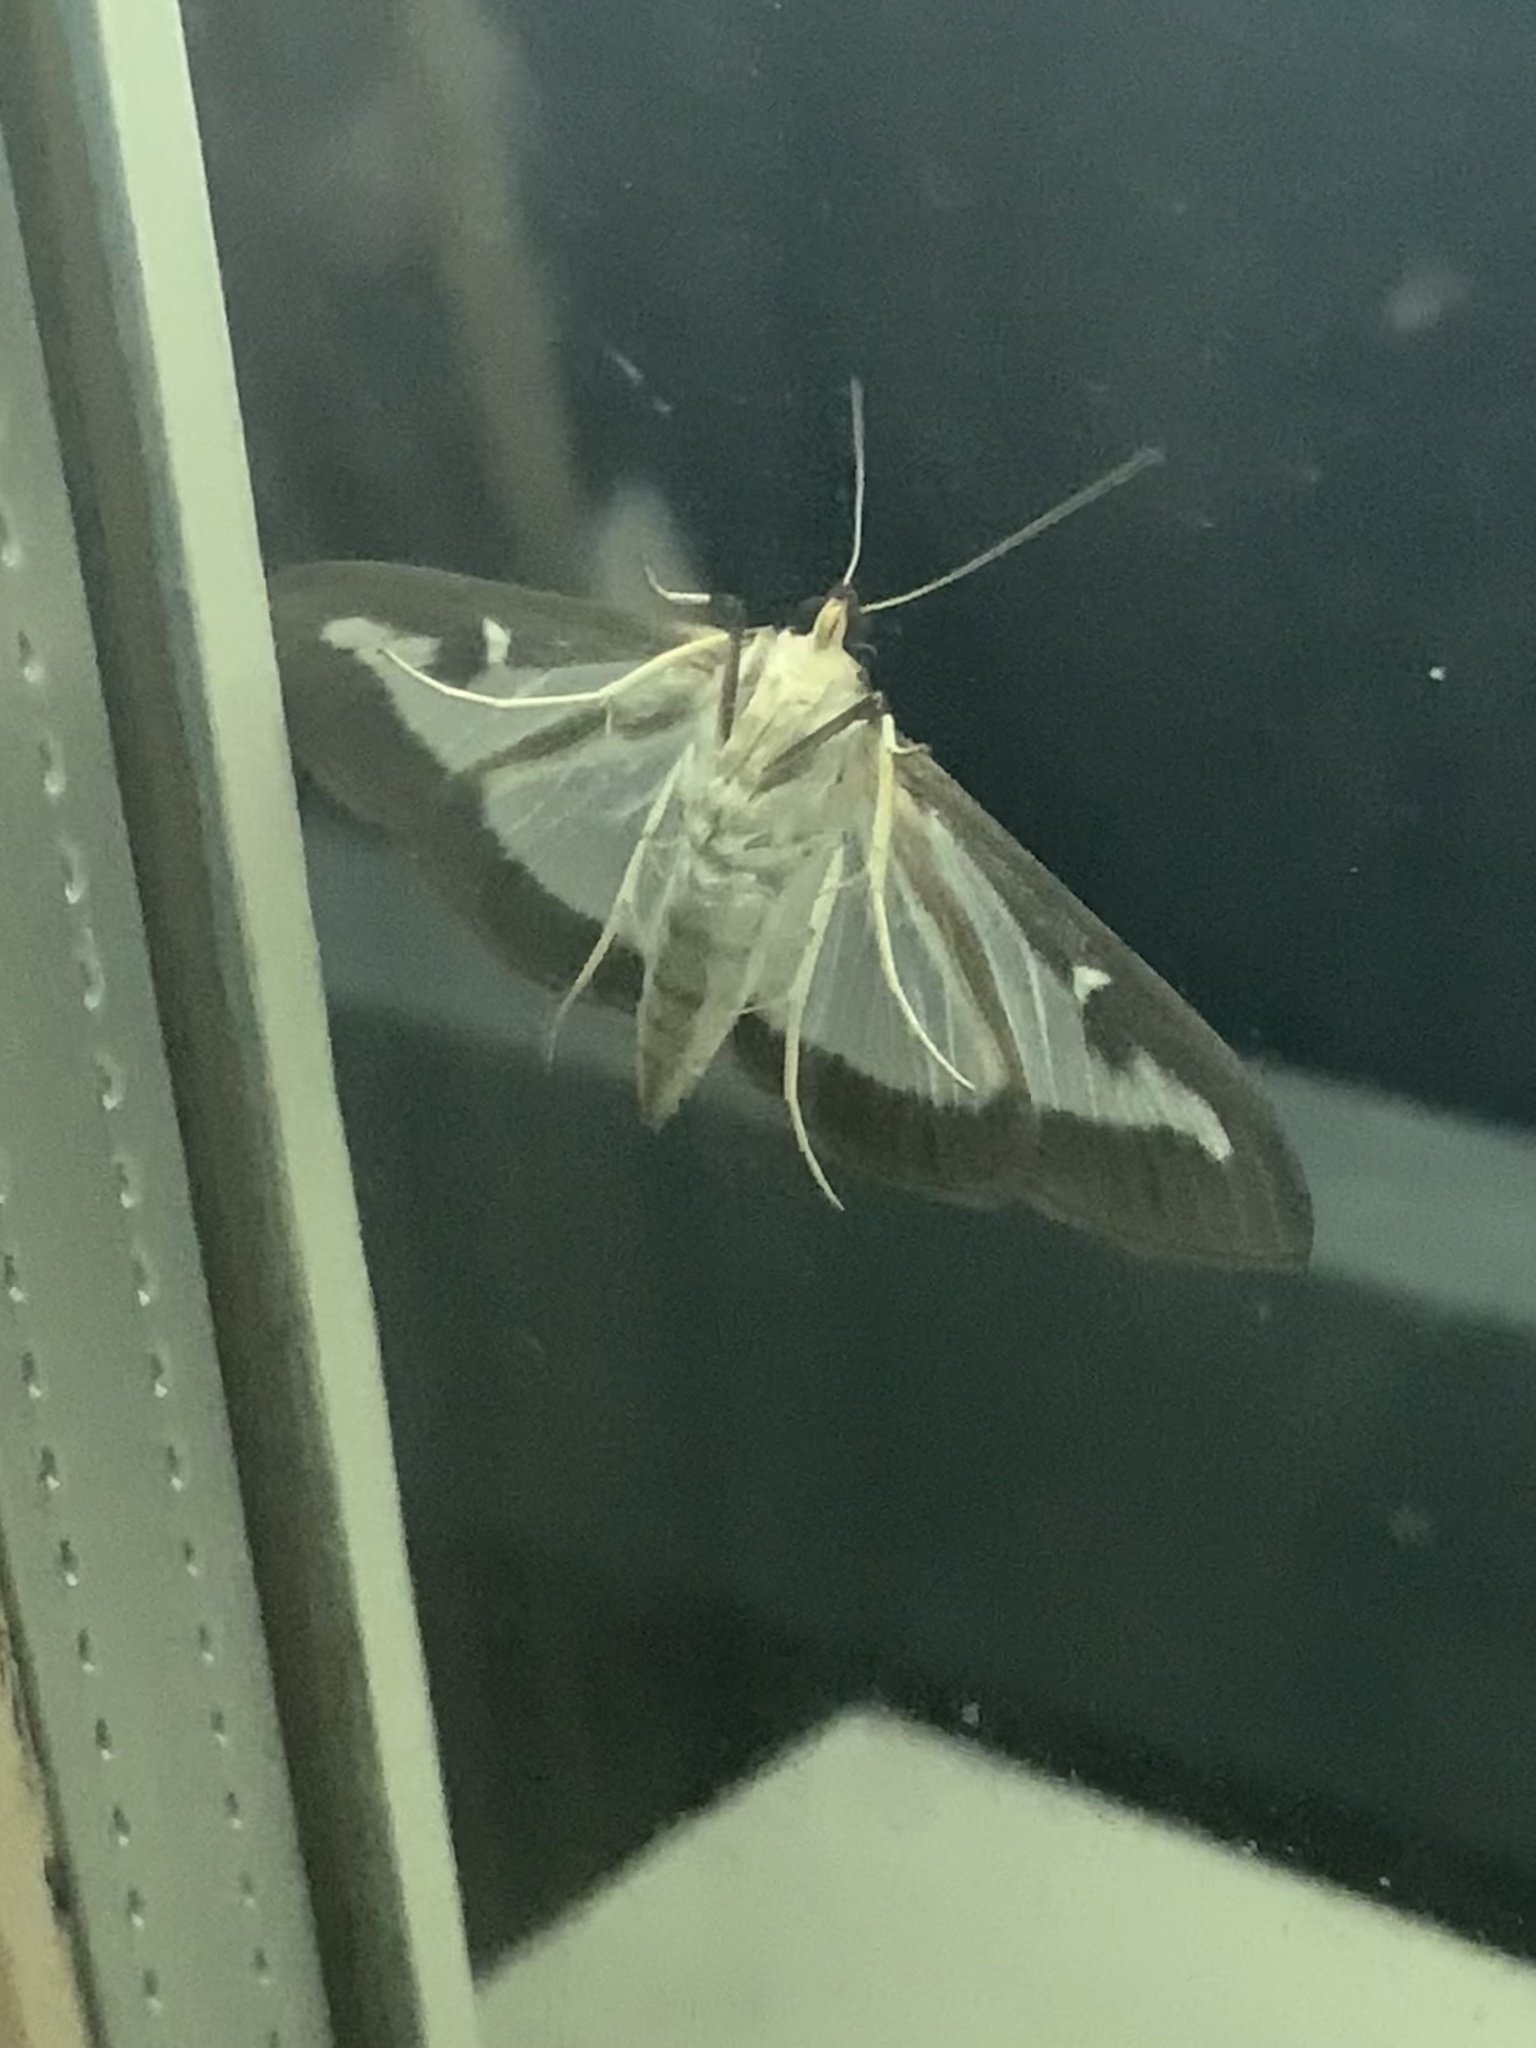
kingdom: Animalia
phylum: Arthropoda
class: Insecta
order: Lepidoptera
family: Crambidae
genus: Cydalima
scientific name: Cydalima perspectalis
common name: Box tree moth
